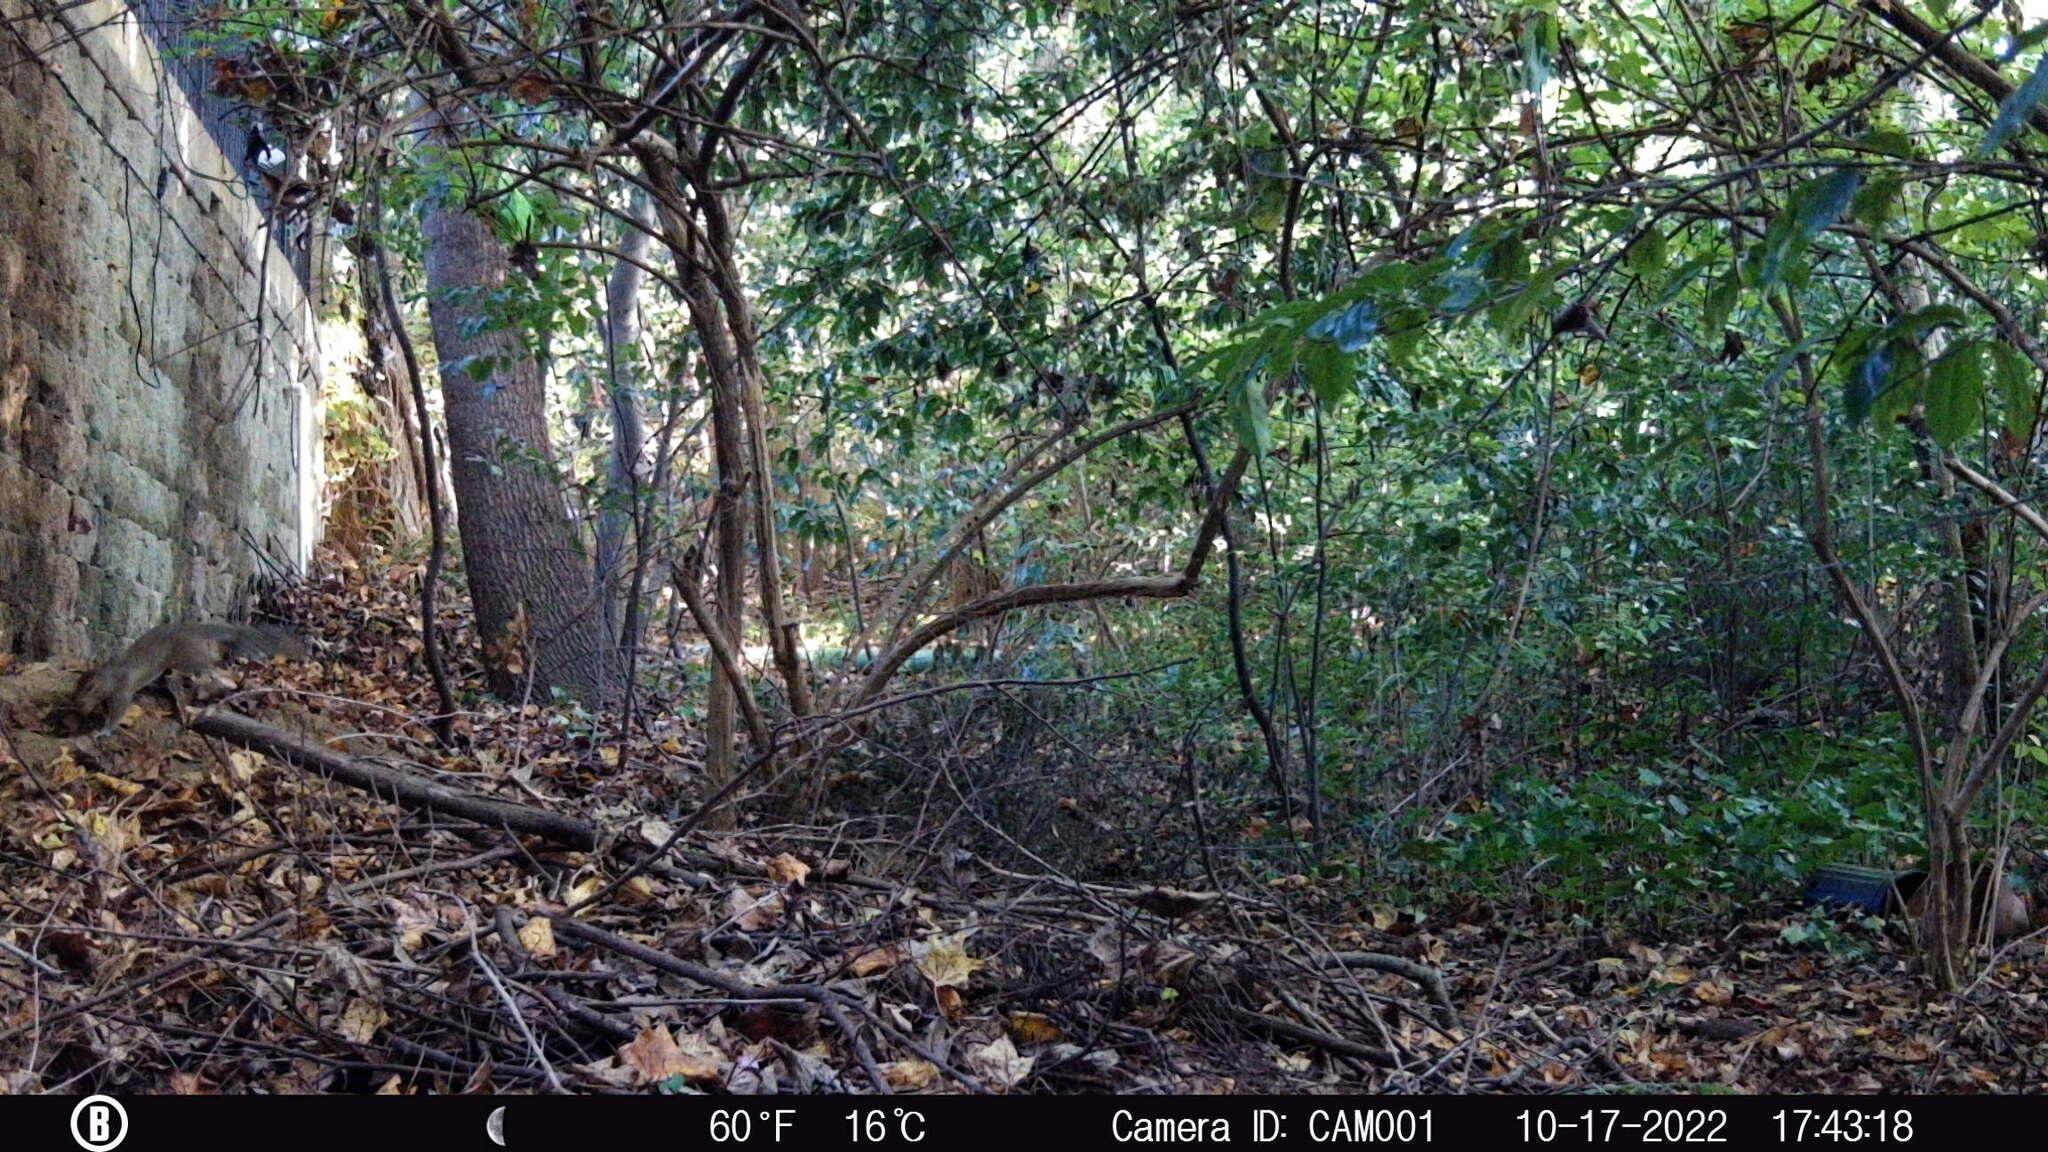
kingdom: Animalia
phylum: Chordata
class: Mammalia
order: Rodentia
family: Sciuridae
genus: Sciurus
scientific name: Sciurus carolinensis
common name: Eastern gray squirrel
